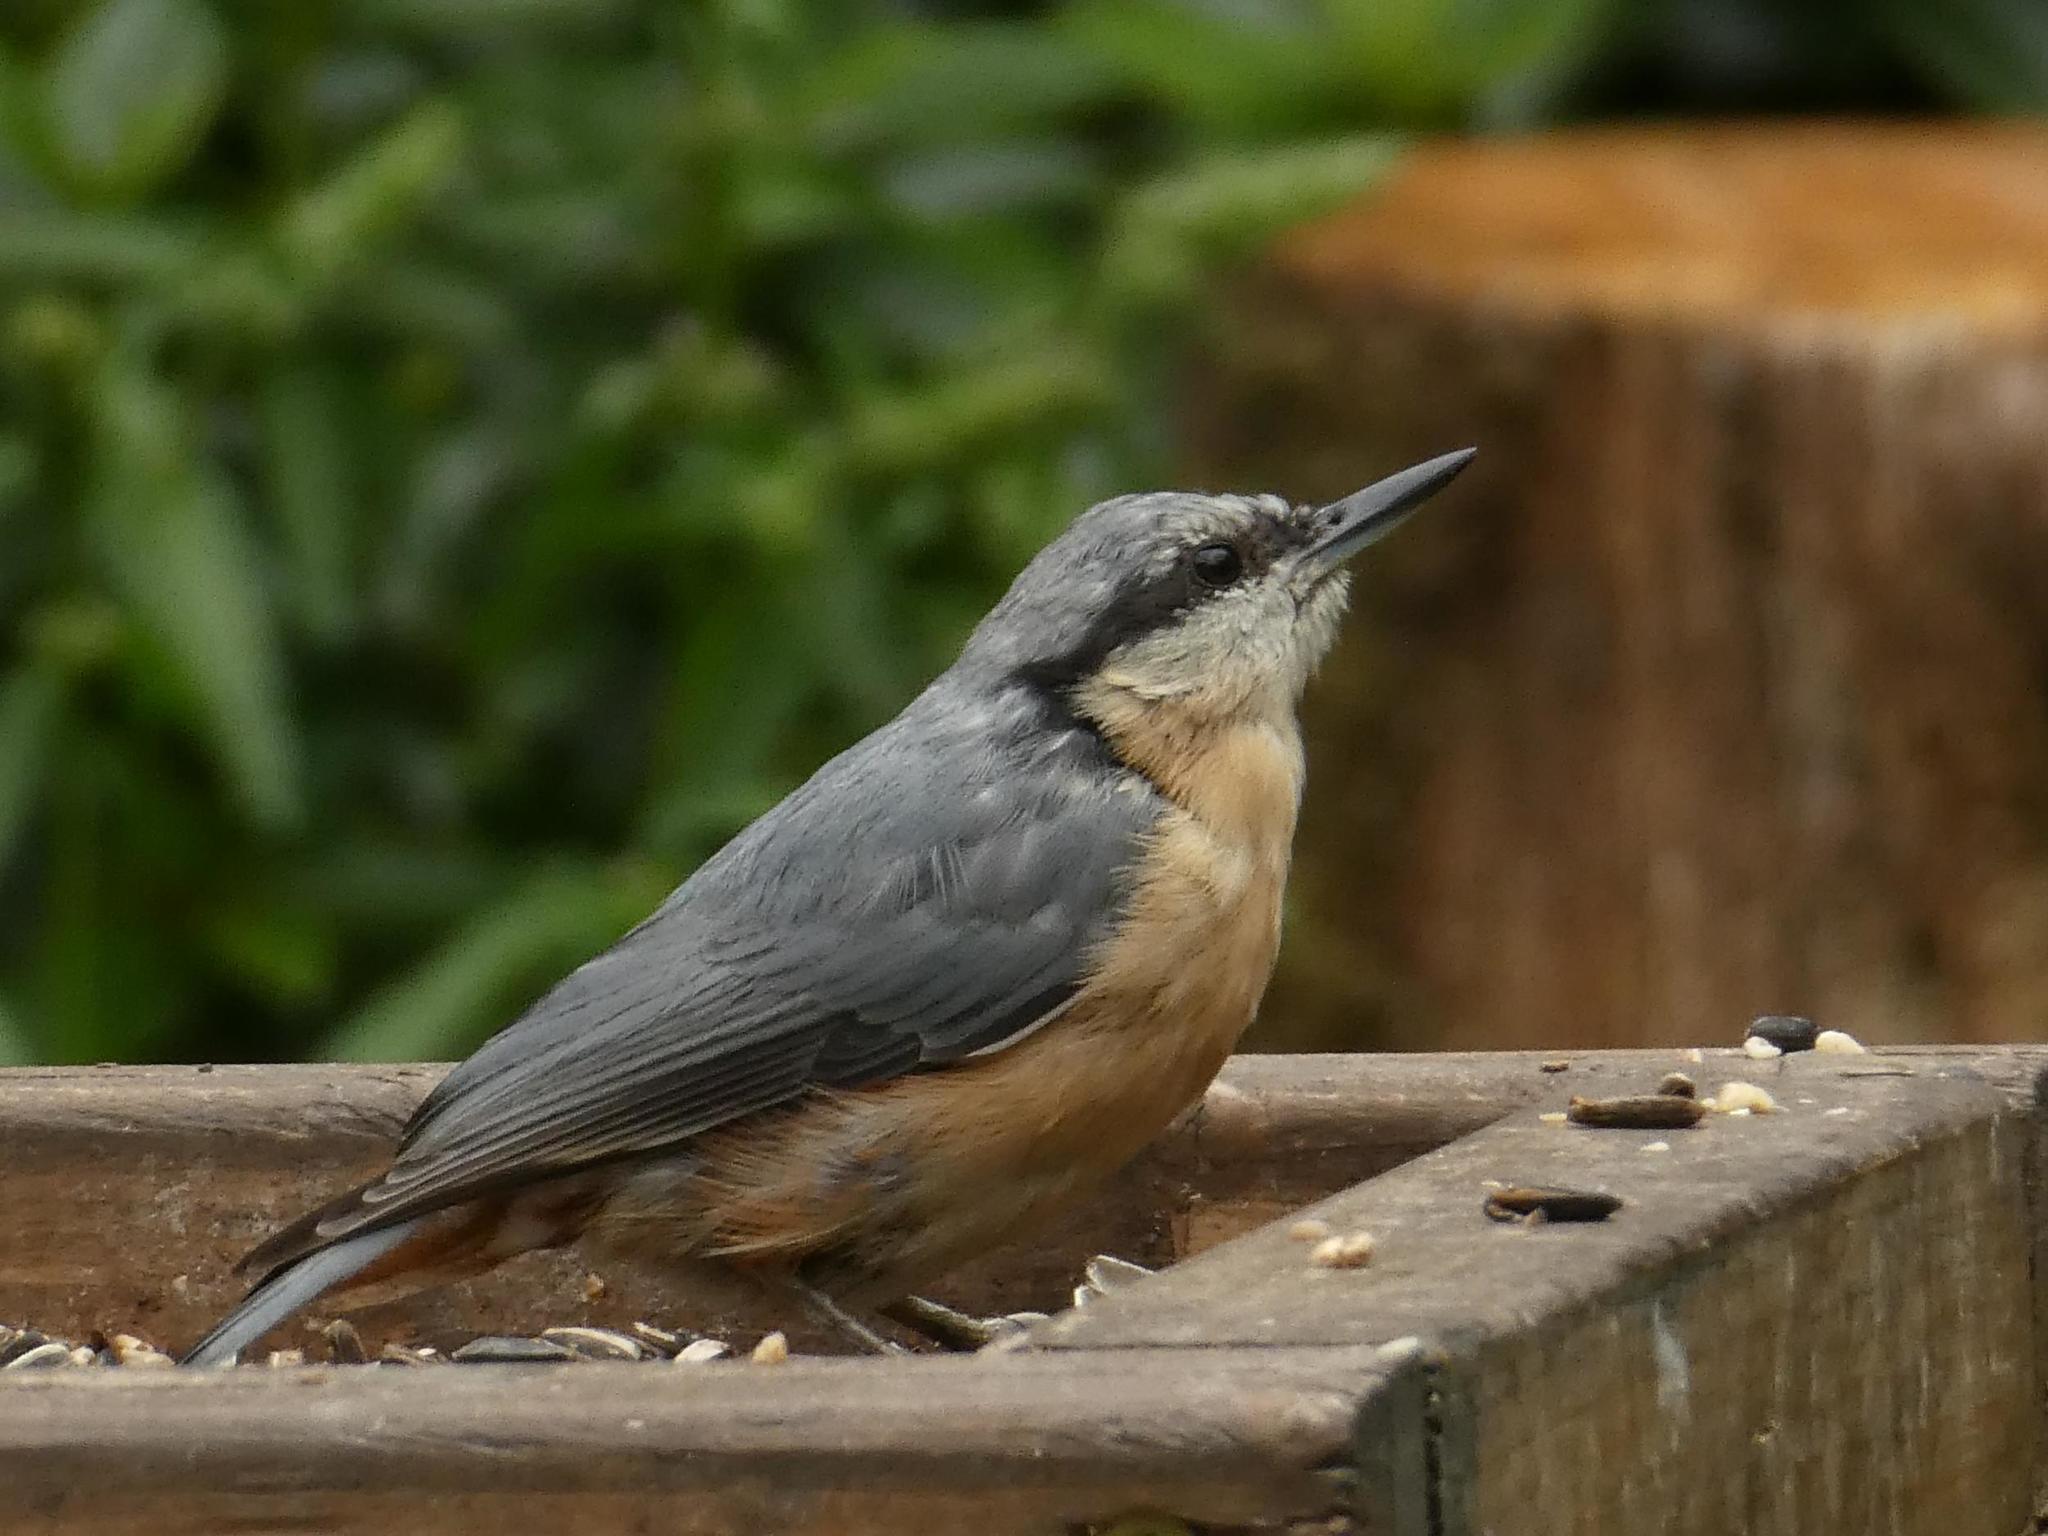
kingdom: Animalia
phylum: Chordata
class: Aves
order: Passeriformes
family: Sittidae
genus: Sitta
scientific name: Sitta europaea
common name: Eurasian nuthatch
